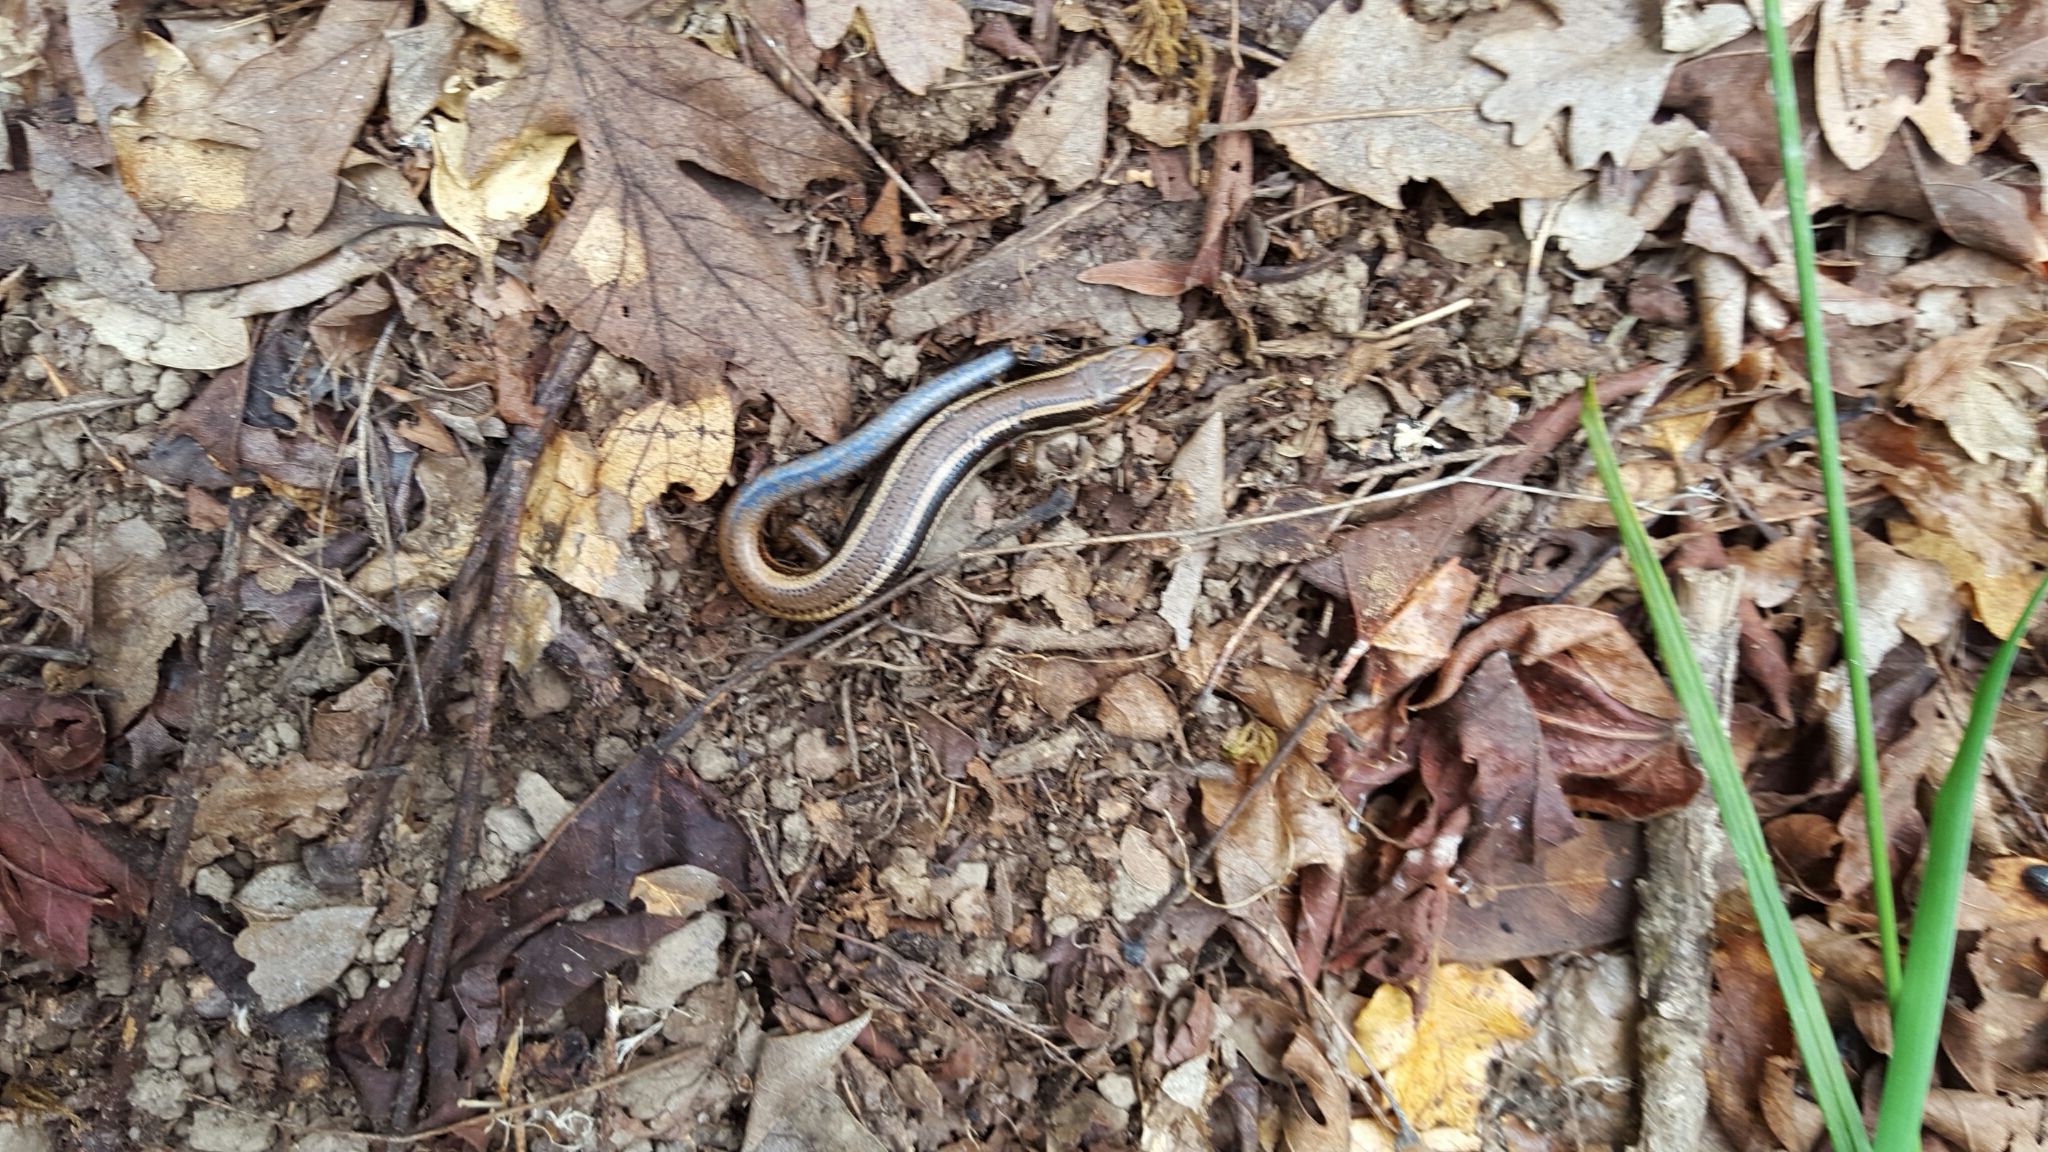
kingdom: Animalia
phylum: Chordata
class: Squamata
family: Scincidae
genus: Plestiodon
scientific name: Plestiodon skiltonianus
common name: Coronado island skink [interparietalis]
